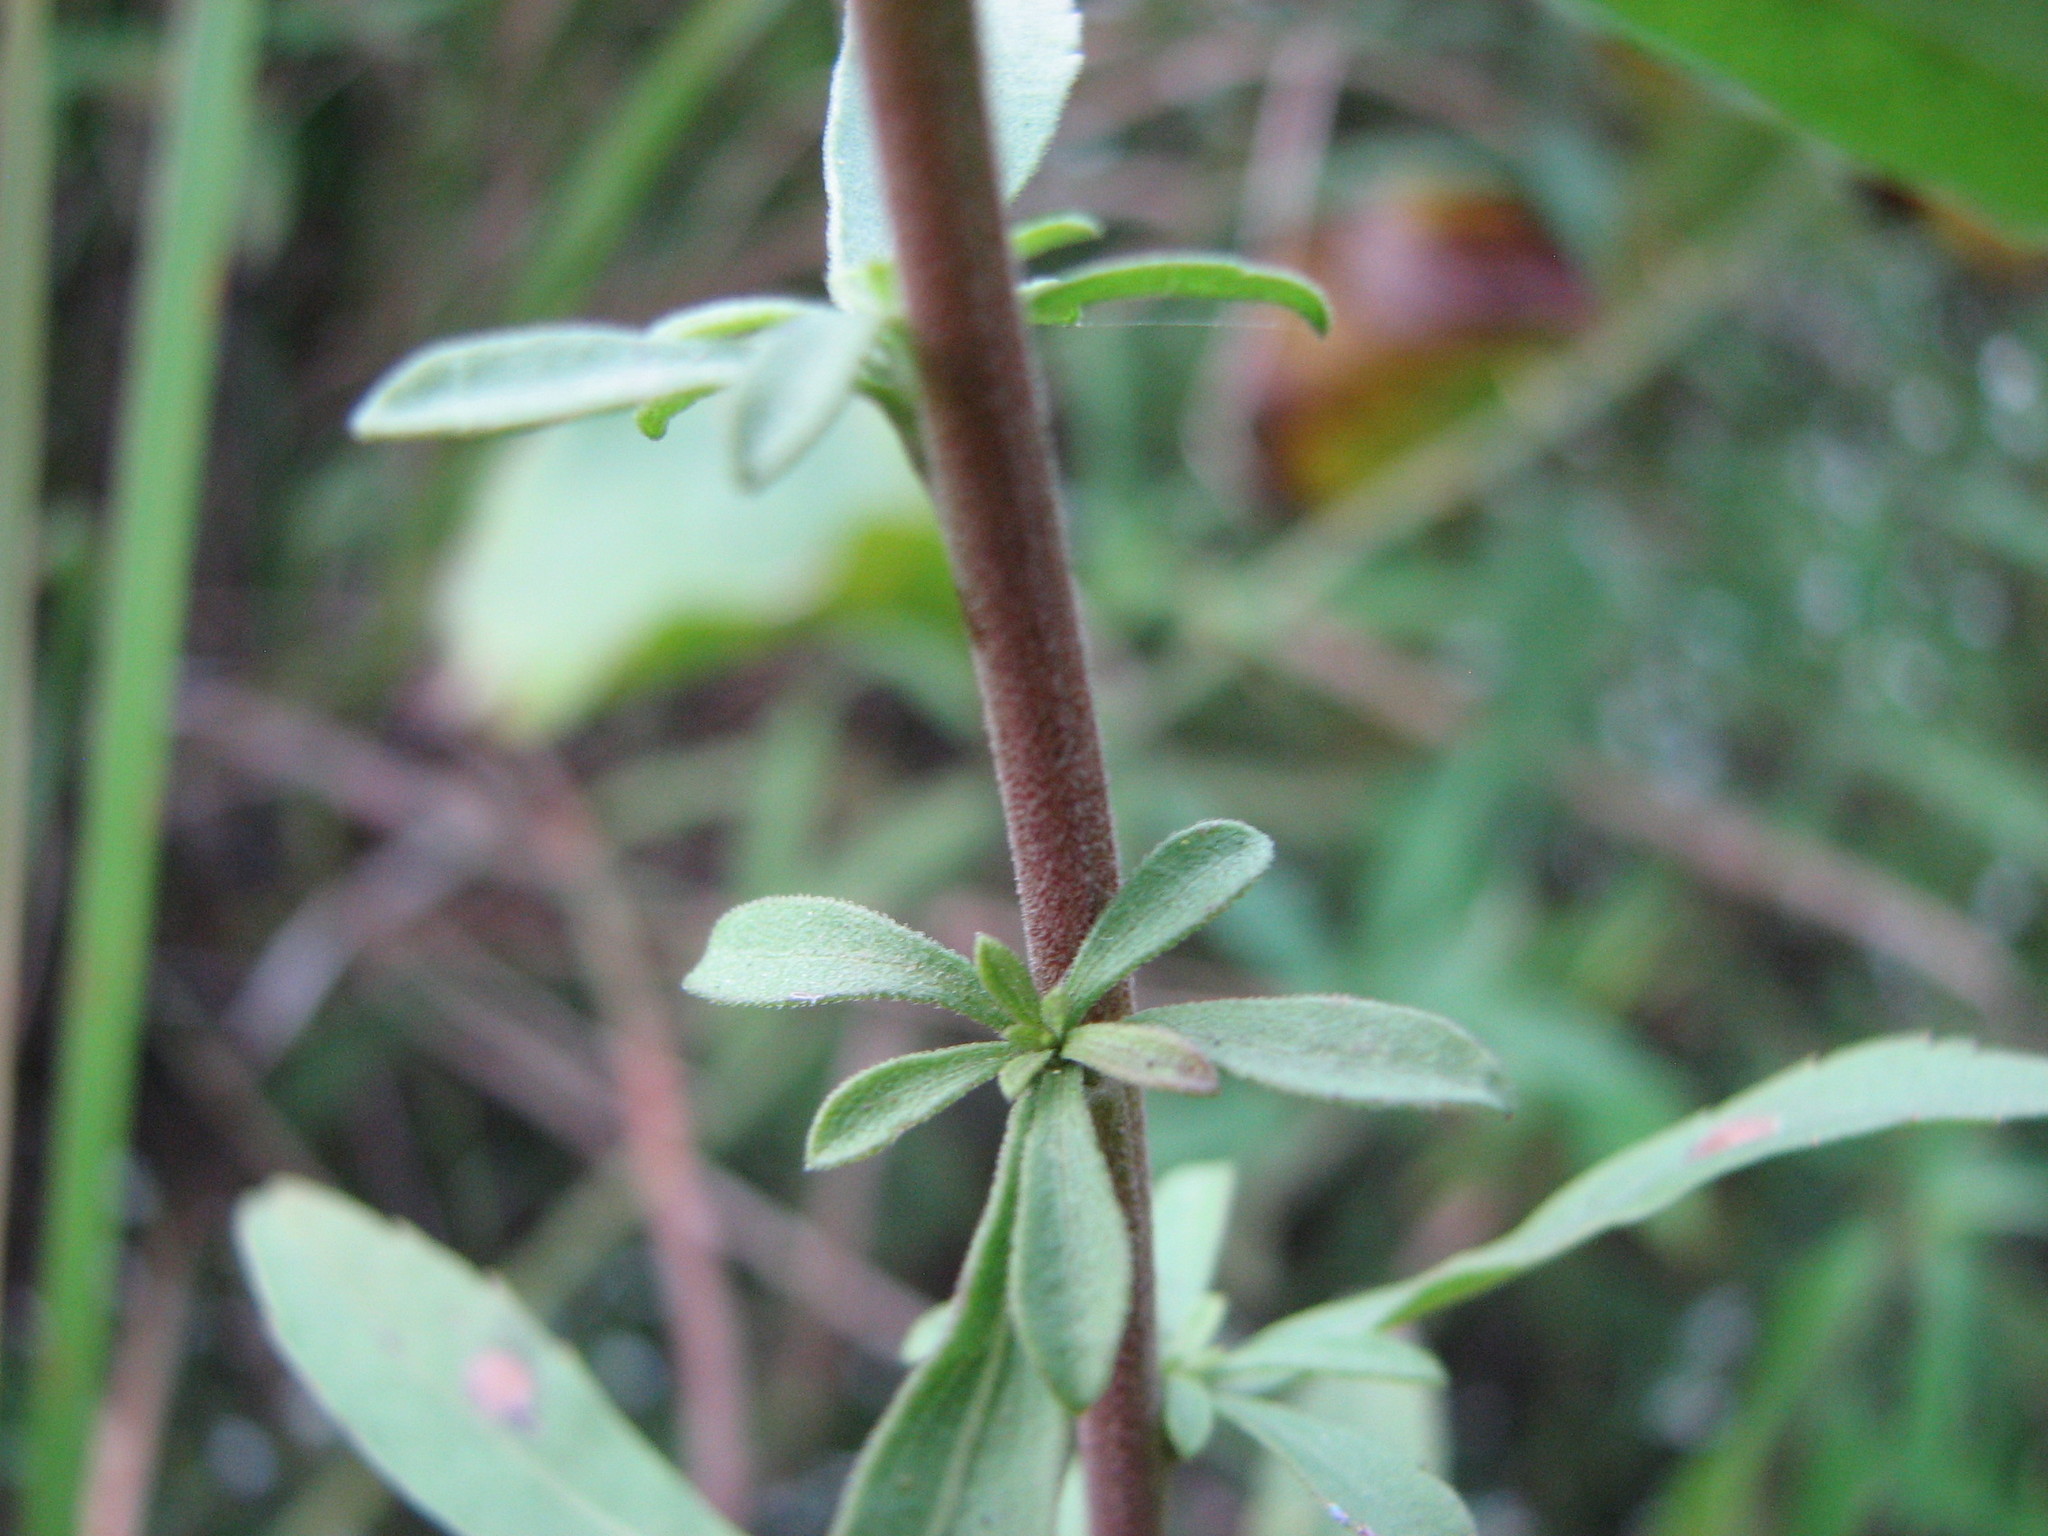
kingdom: Plantae
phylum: Tracheophyta
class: Magnoliopsida
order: Asterales
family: Asteraceae
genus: Solidago
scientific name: Solidago nemoralis
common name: Grey goldenrod
